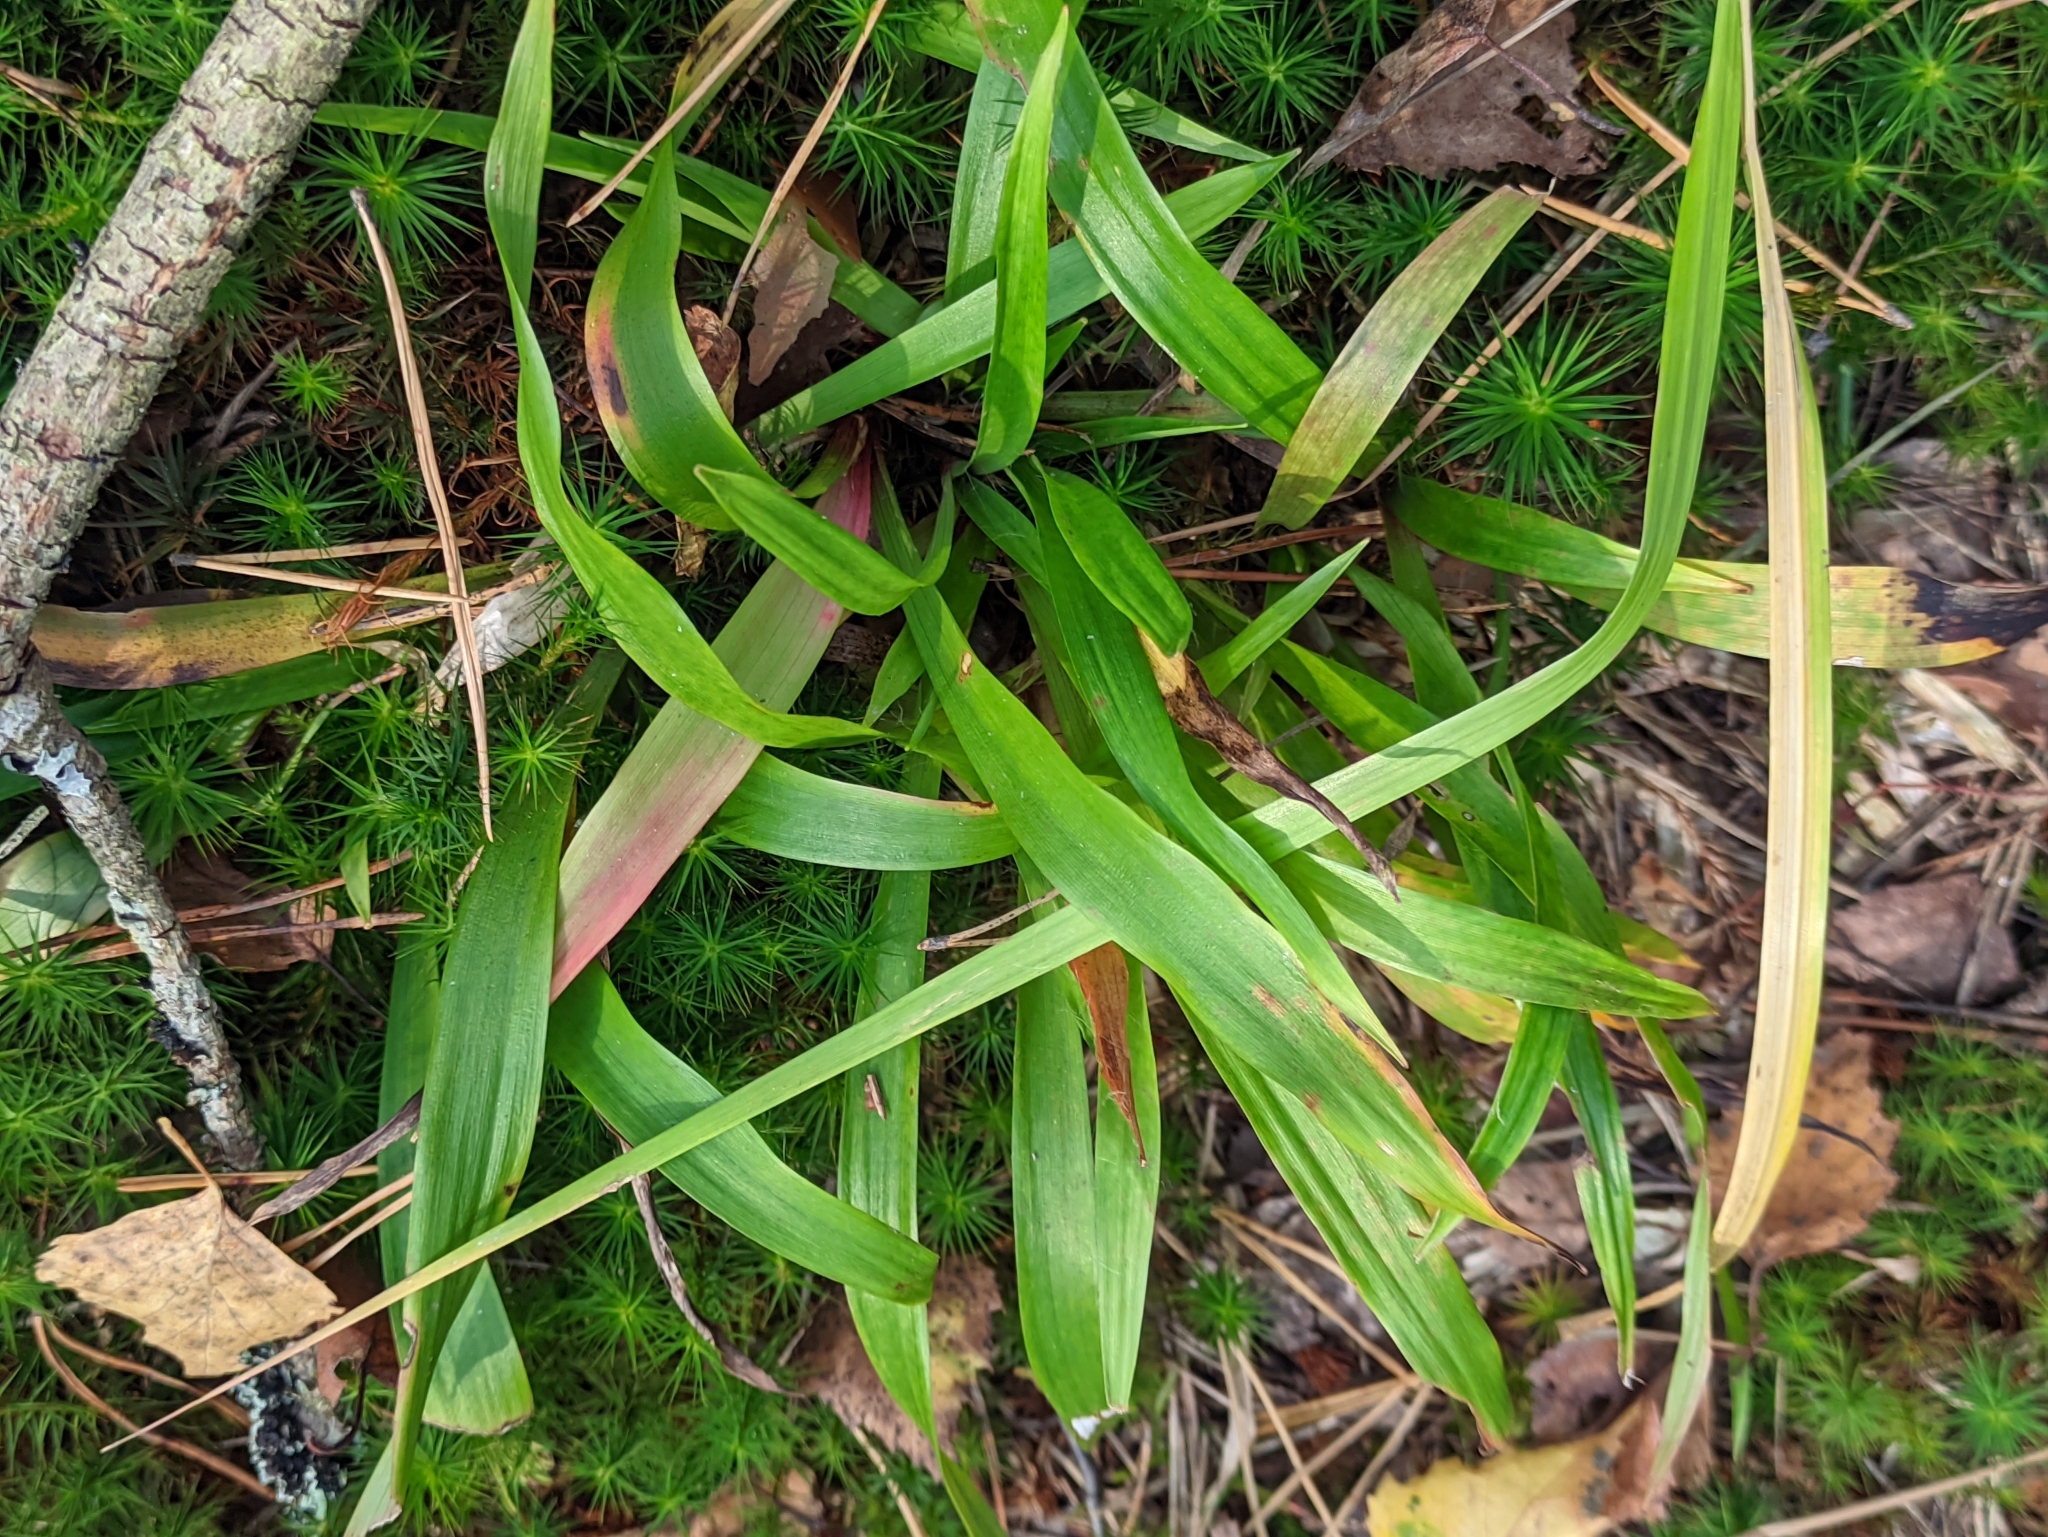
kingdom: Plantae
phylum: Tracheophyta
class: Liliopsida
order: Poales
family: Juncaceae
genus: Luzula
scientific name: Luzula pilosa
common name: Hairy wood-rush
